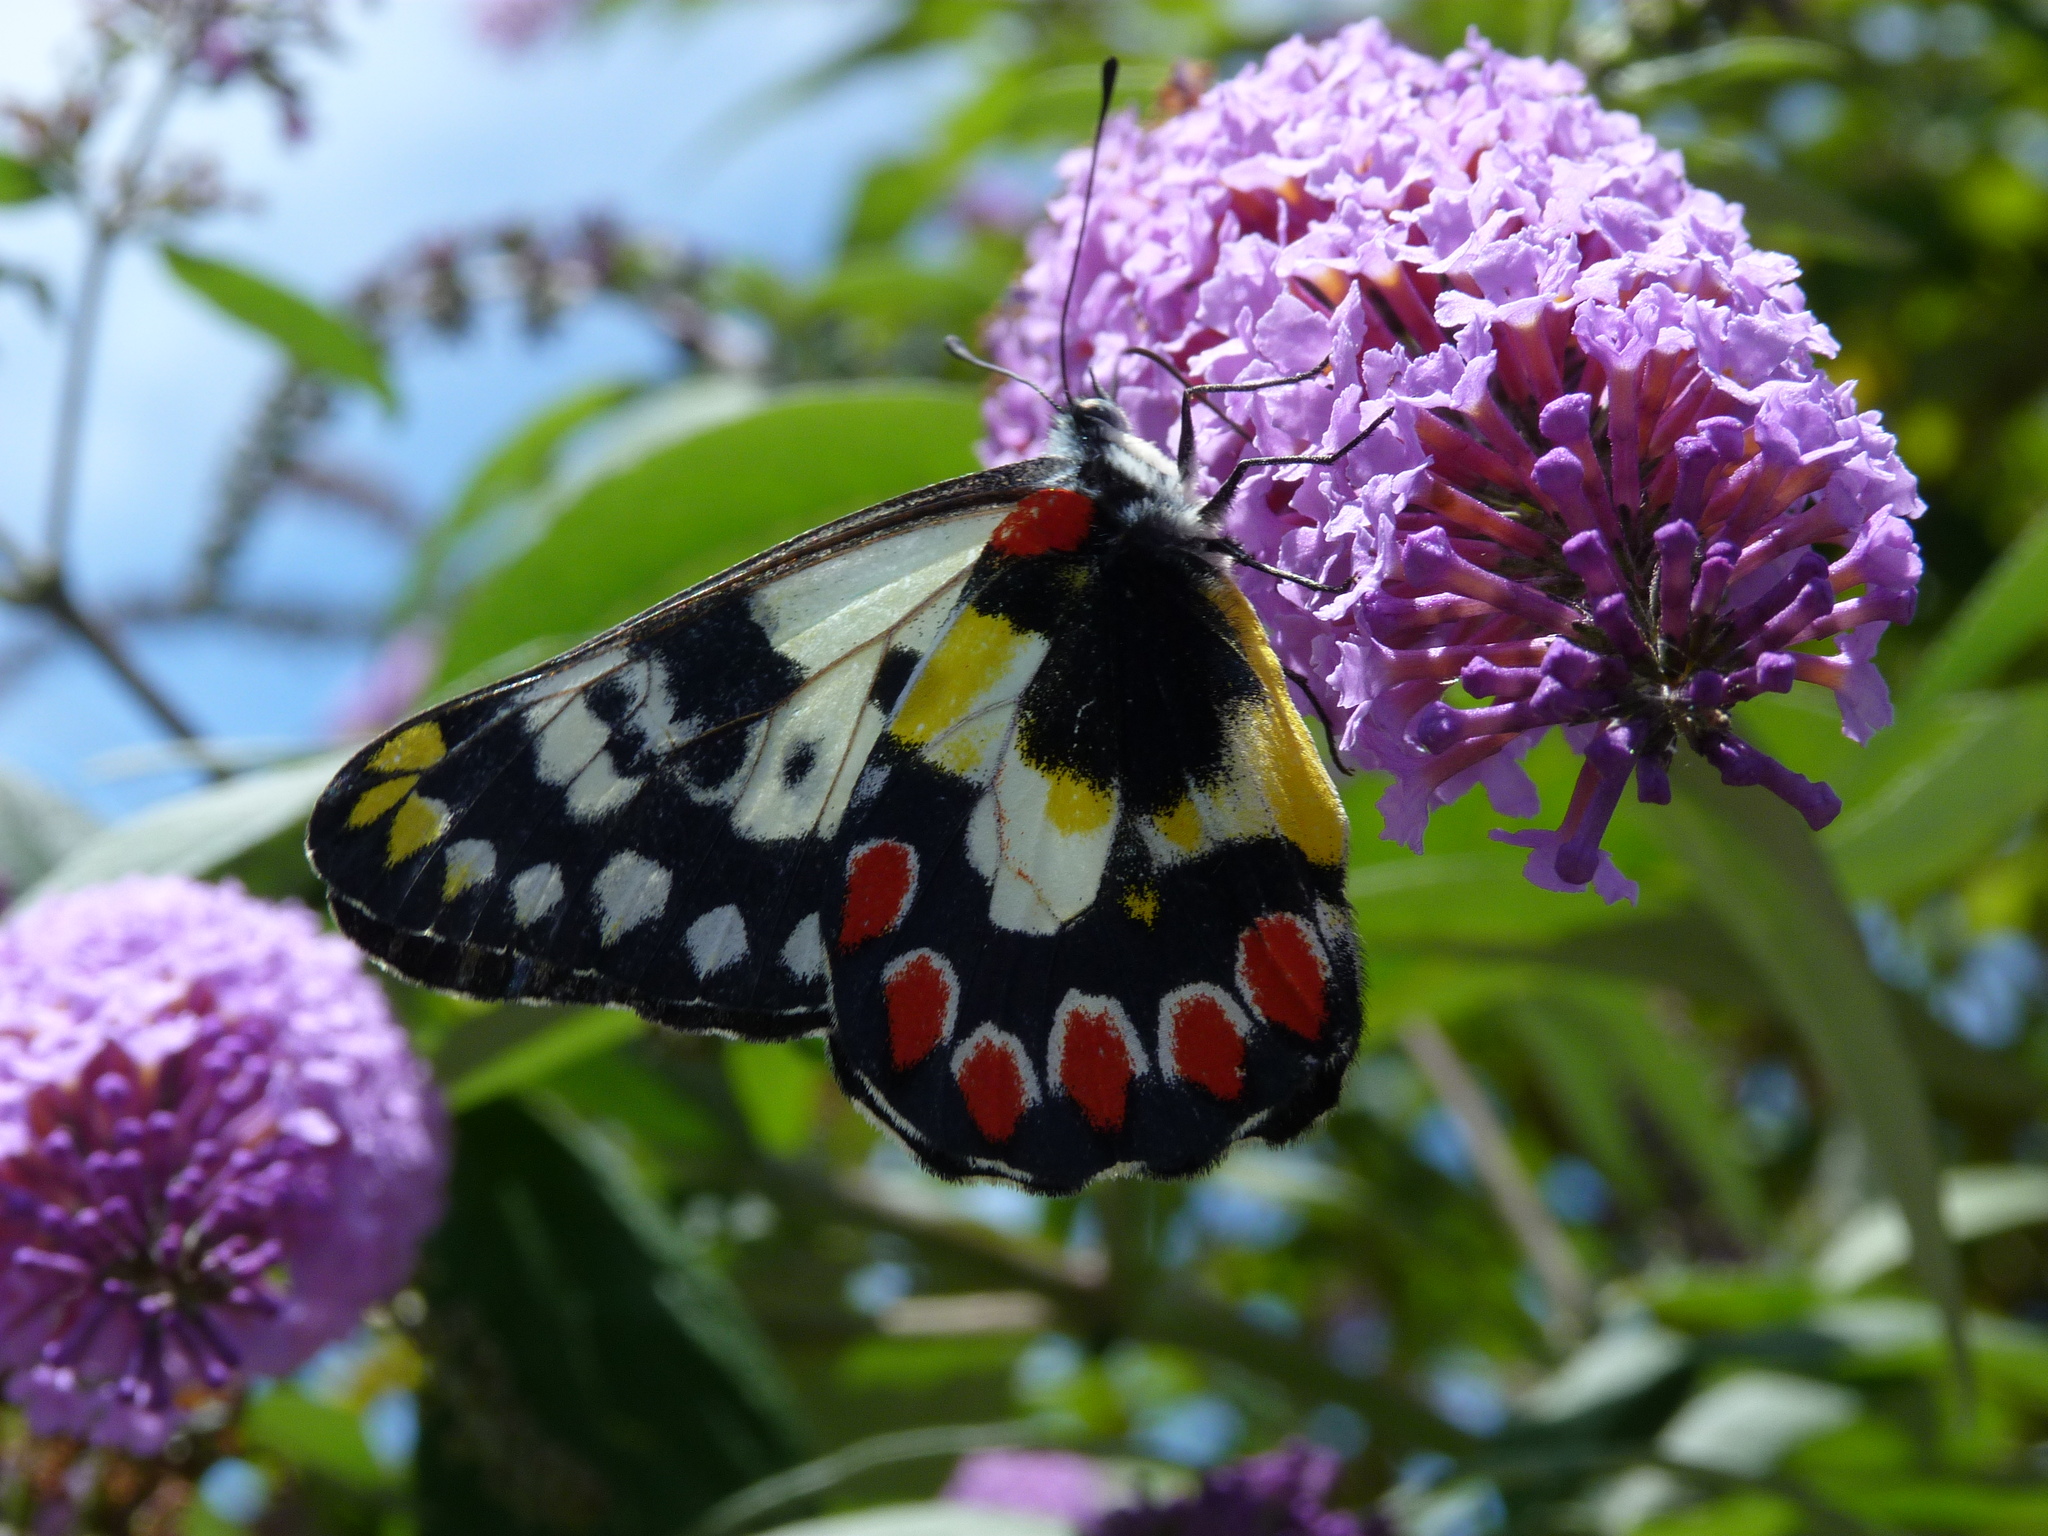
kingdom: Animalia
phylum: Arthropoda
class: Insecta
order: Lepidoptera
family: Pieridae
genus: Delias
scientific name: Delias aganippe
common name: Red-spotted jezebel
